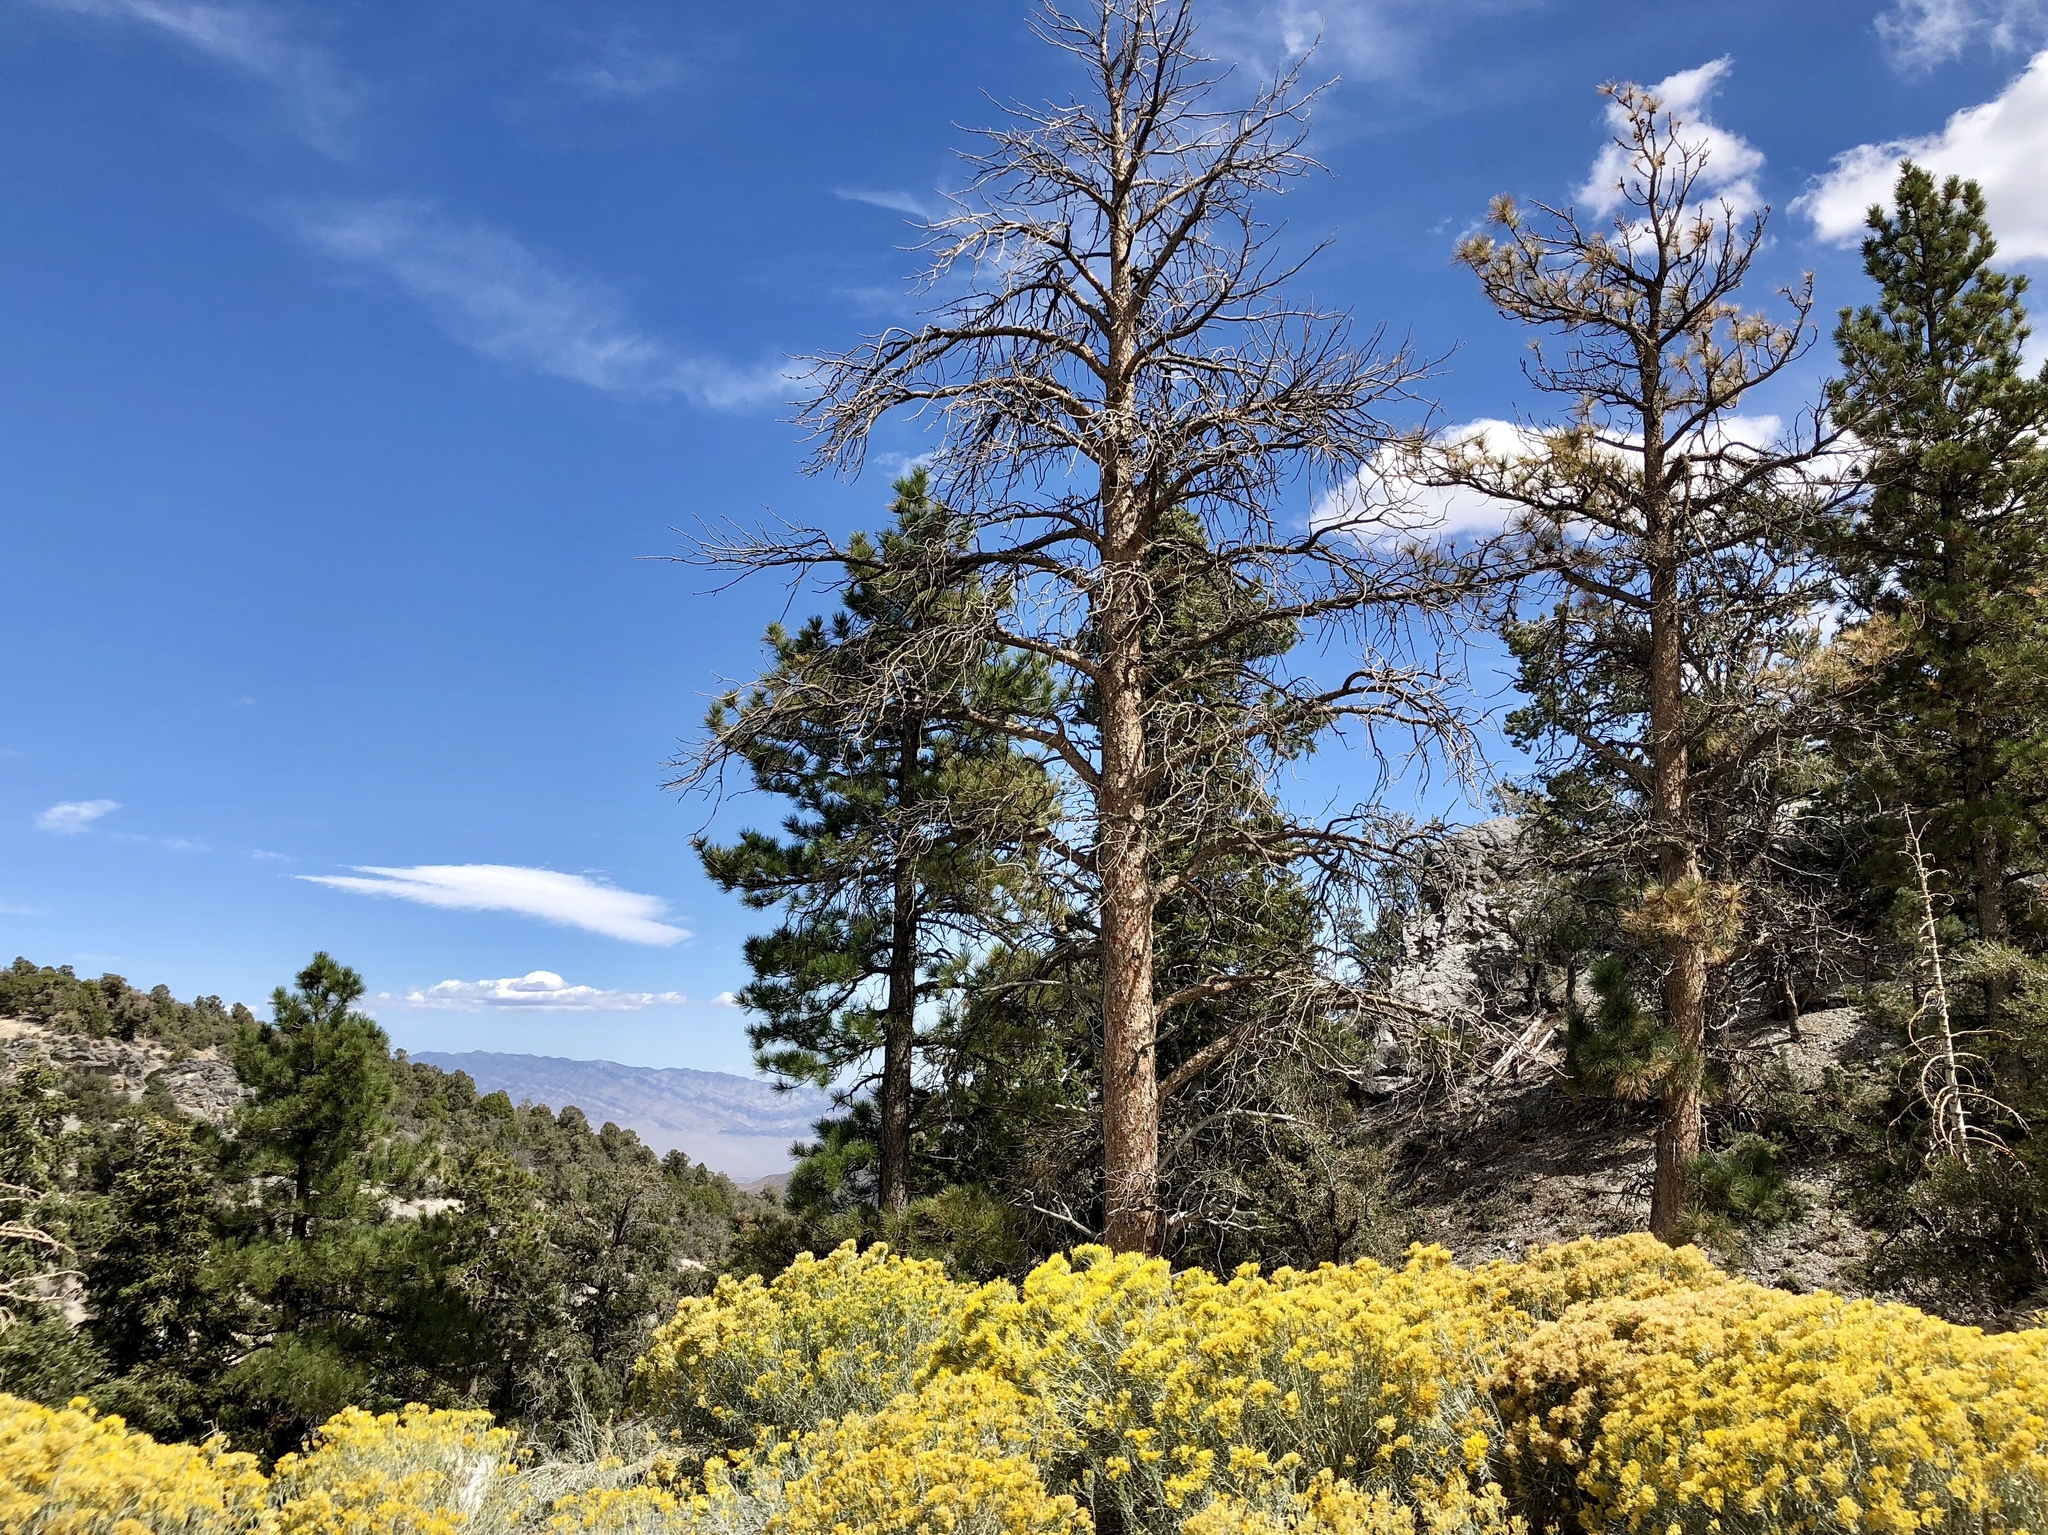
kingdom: Plantae
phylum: Tracheophyta
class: Pinopsida
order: Pinales
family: Pinaceae
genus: Pinus
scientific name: Pinus ponderosa
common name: Western yellow-pine
